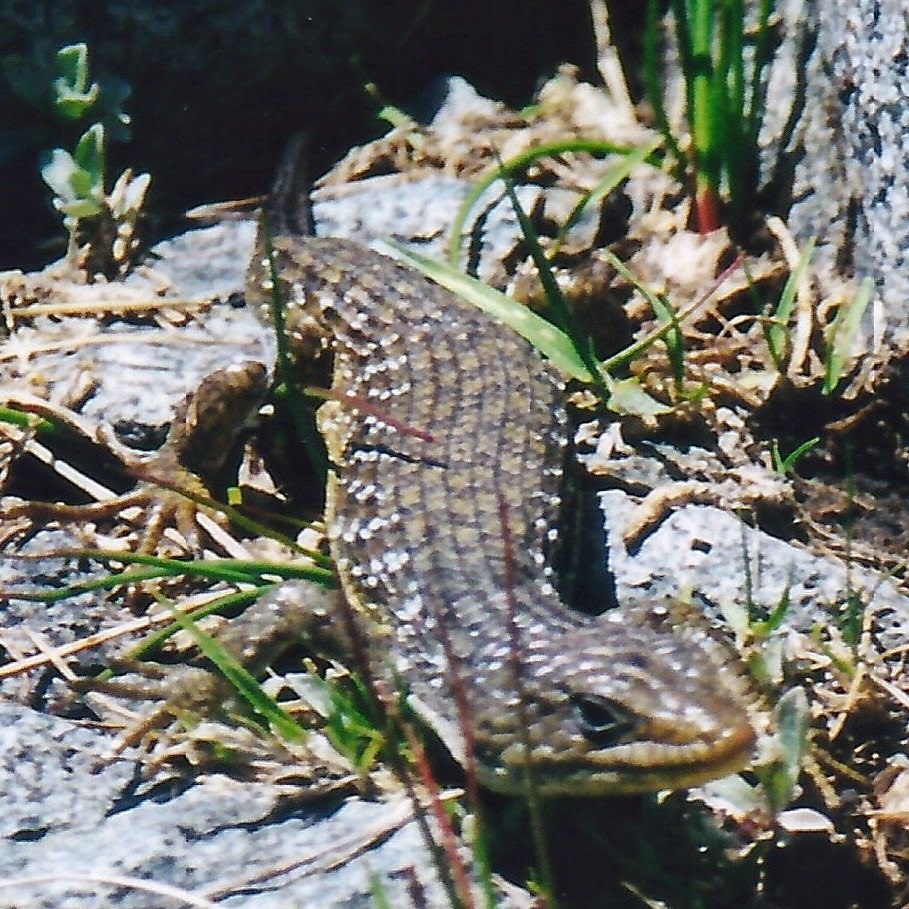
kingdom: Animalia
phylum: Chordata
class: Squamata
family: Anguidae
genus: Elgaria
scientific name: Elgaria coerulea
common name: Northern alligator lizard
